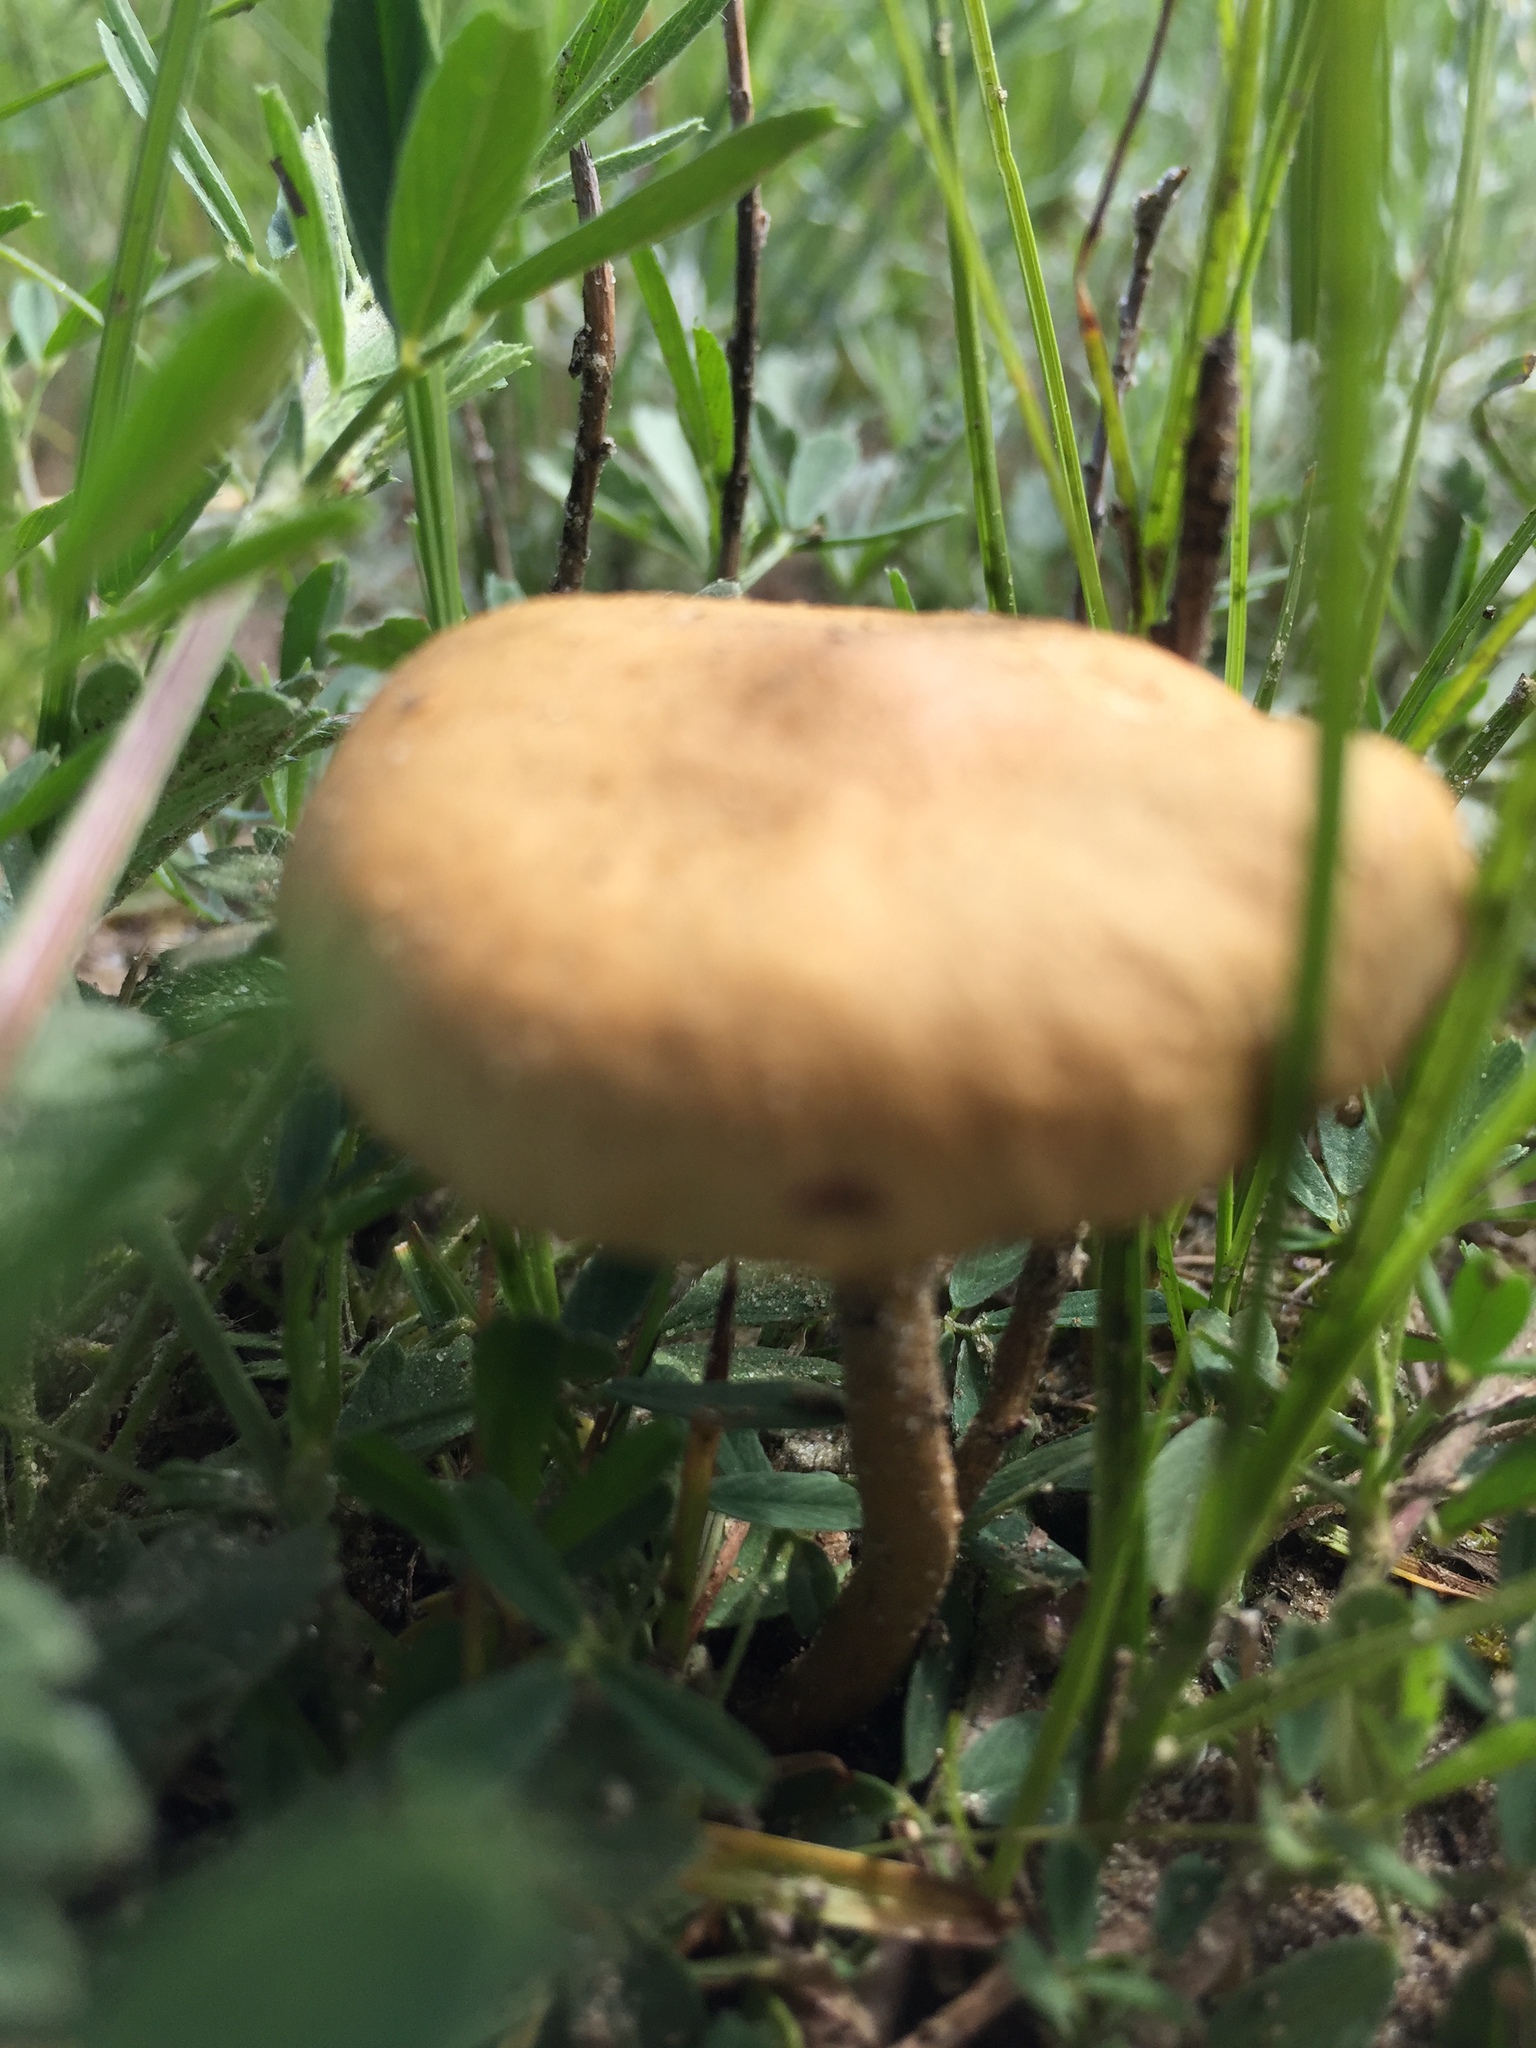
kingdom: Fungi
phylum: Basidiomycota
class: Agaricomycetes
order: Agaricales
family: Marasmiaceae
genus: Marasmius
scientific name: Marasmius oreades
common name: Fairy ring champignon
